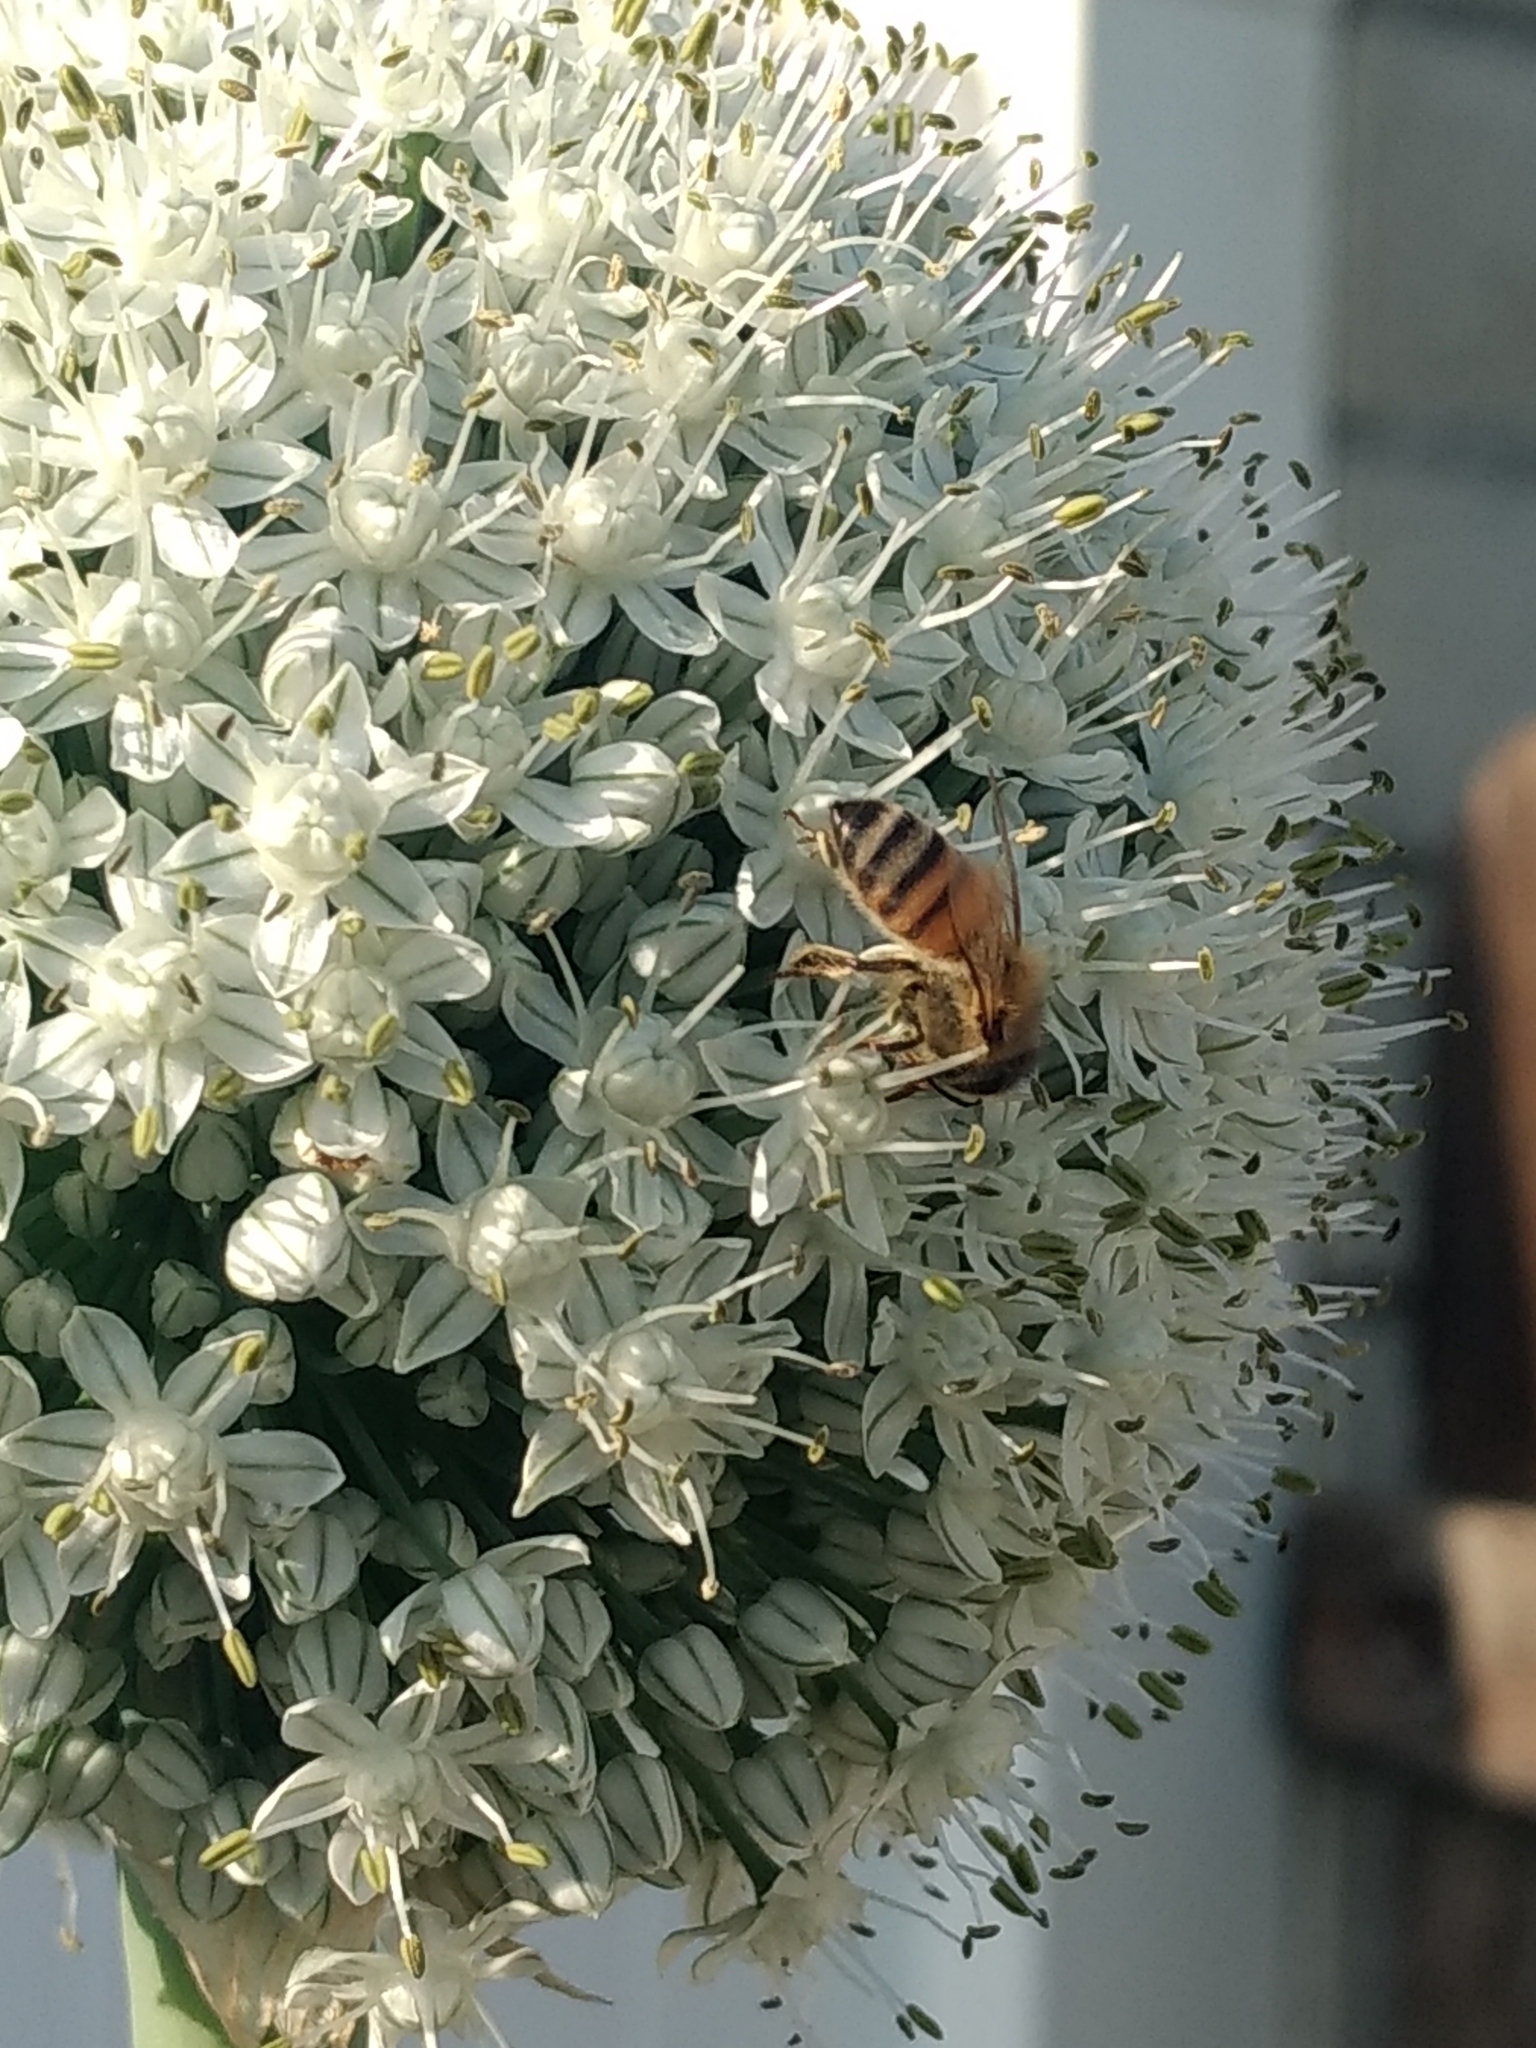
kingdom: Animalia
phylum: Arthropoda
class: Insecta
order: Hymenoptera
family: Apidae
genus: Apis
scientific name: Apis mellifera
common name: Honey bee
